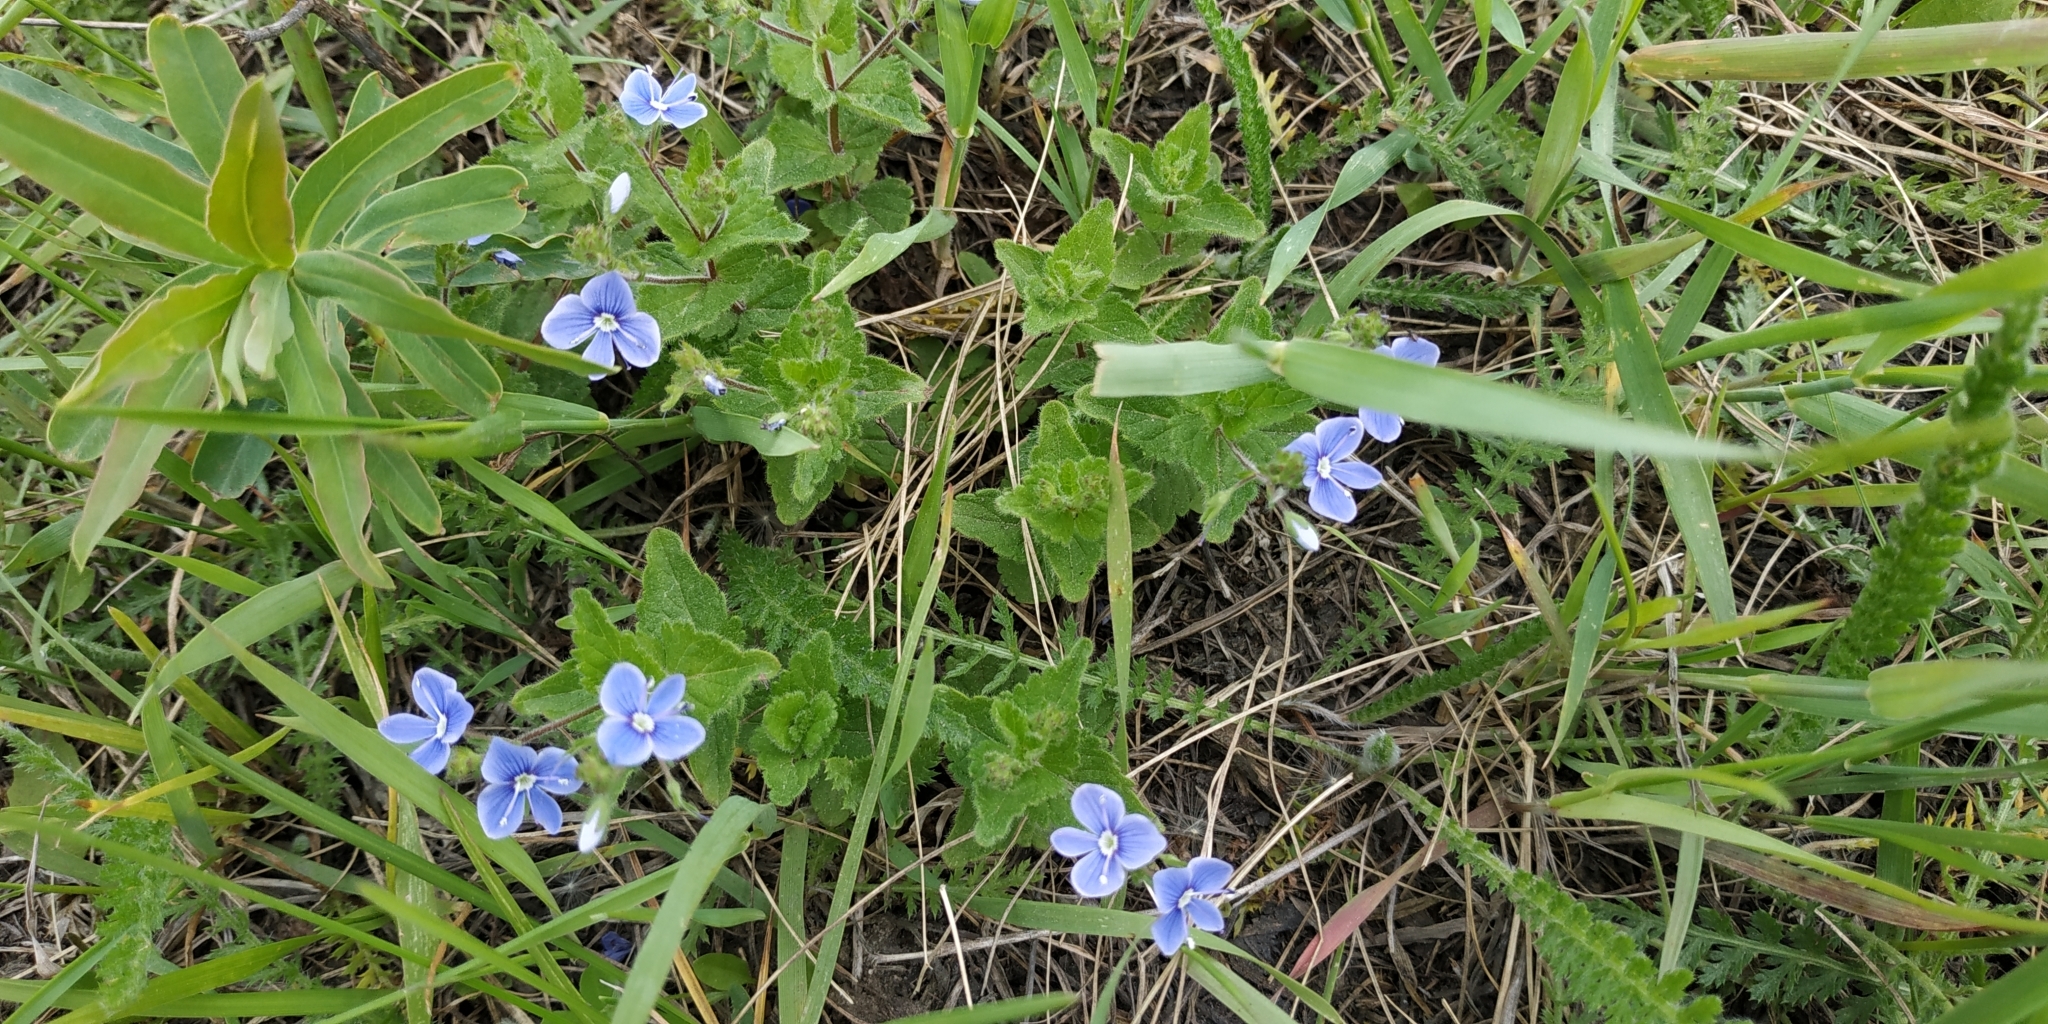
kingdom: Plantae
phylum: Tracheophyta
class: Magnoliopsida
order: Lamiales
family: Plantaginaceae
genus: Veronica
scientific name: Veronica chamaedrys
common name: Germander speedwell
